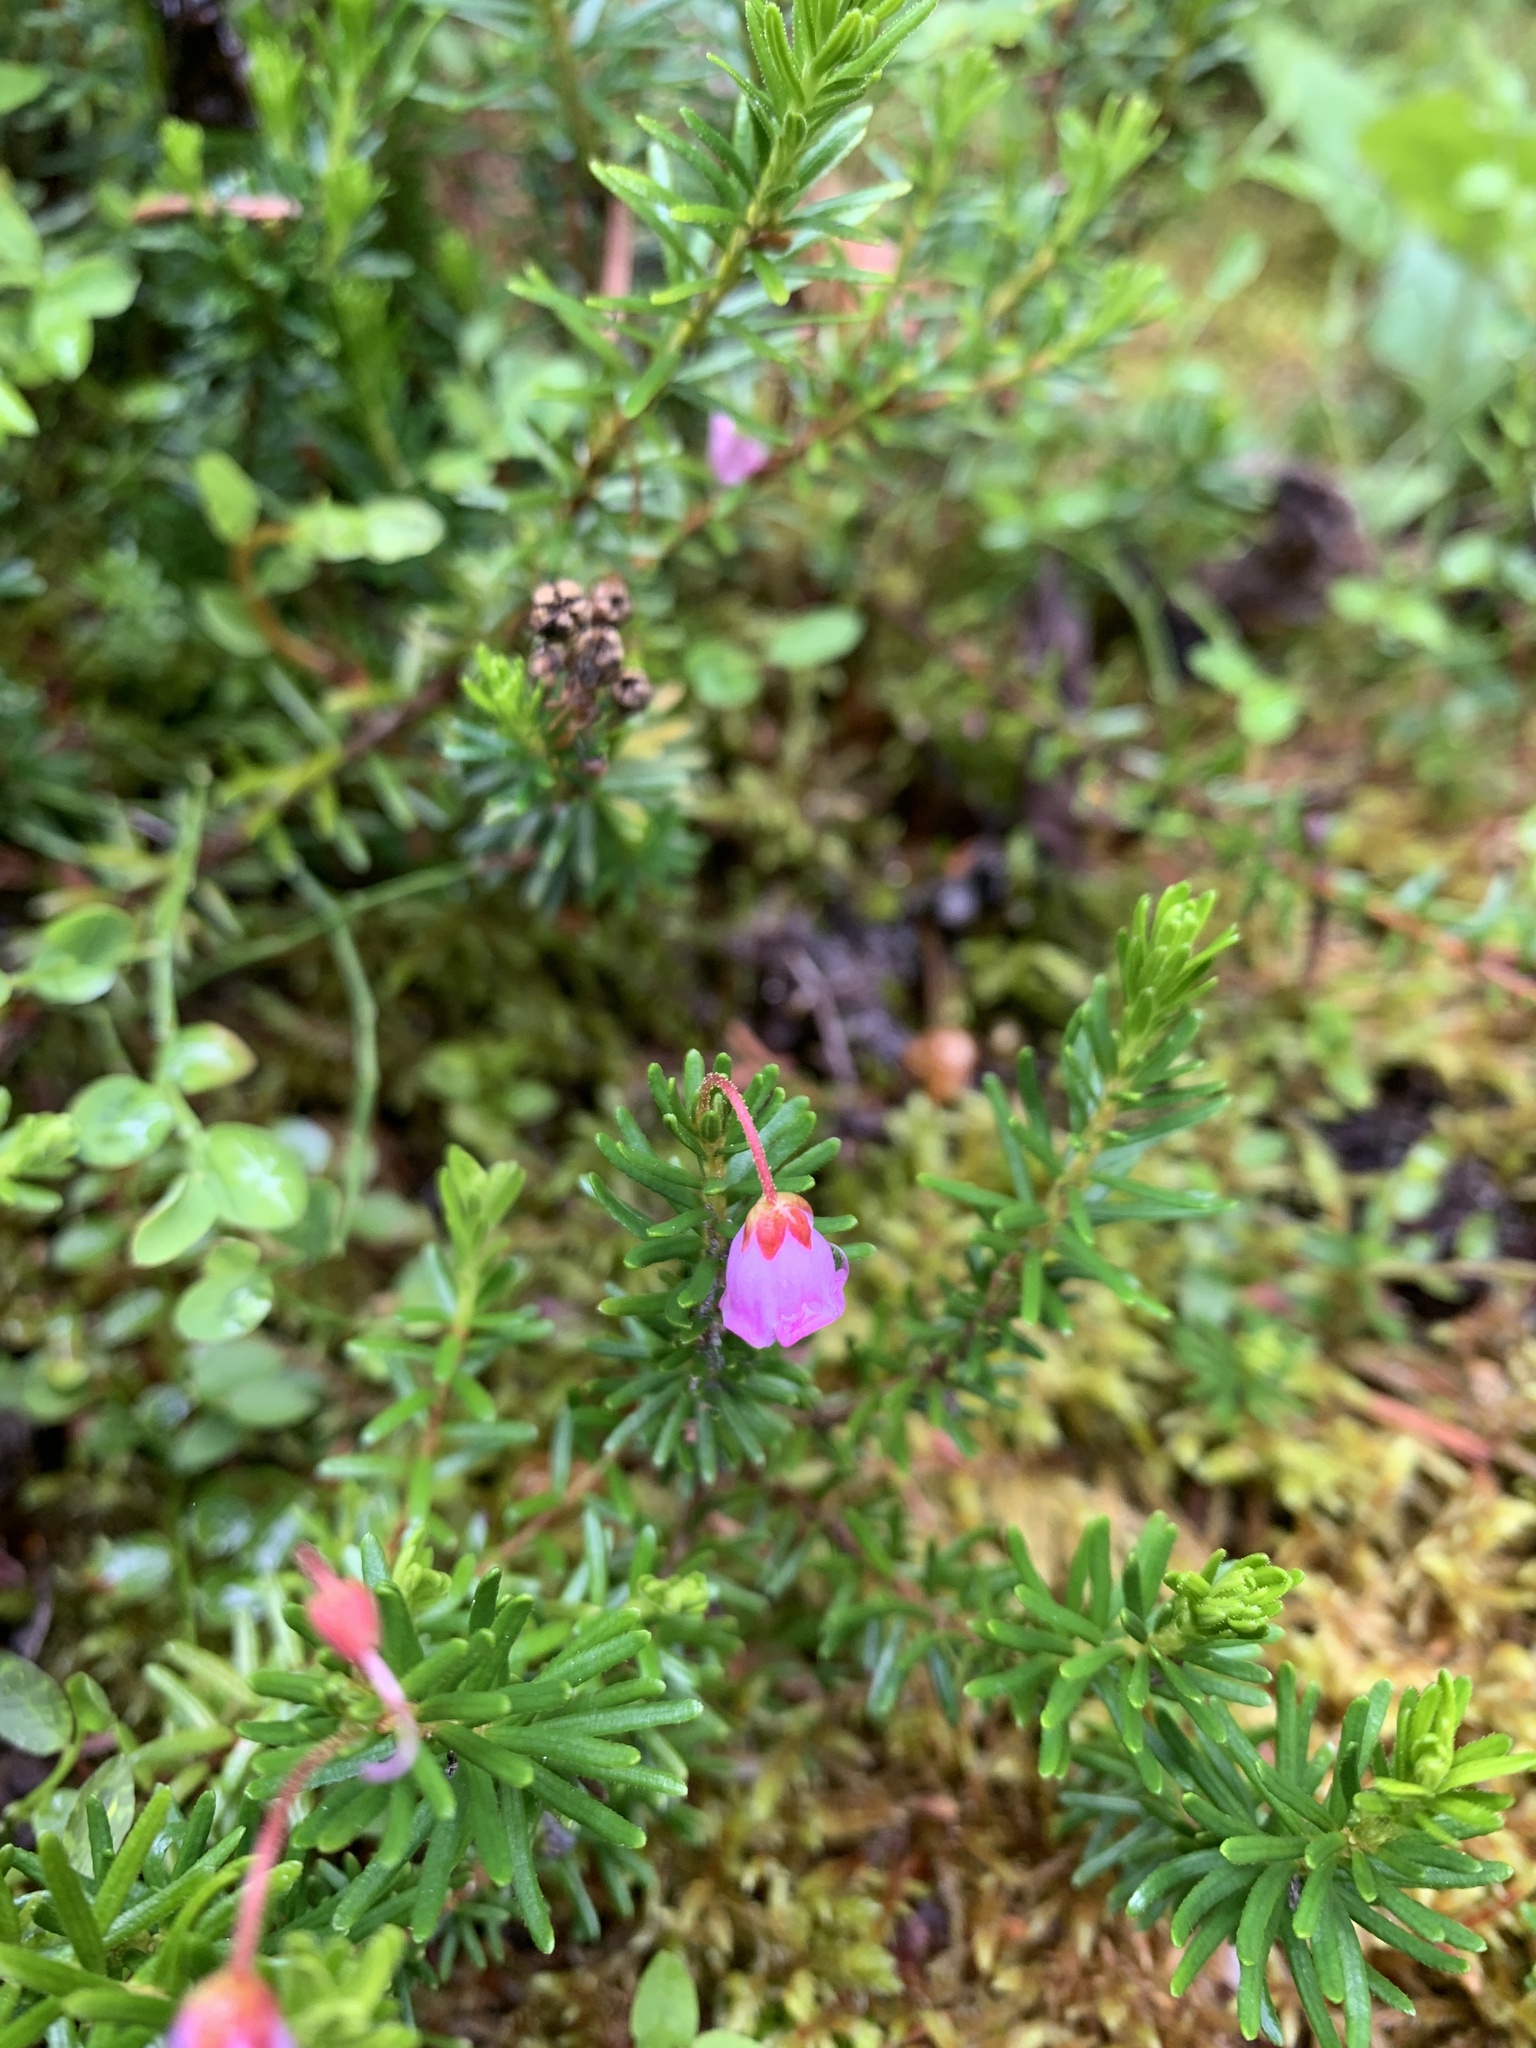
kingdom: Plantae
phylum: Tracheophyta
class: Magnoliopsida
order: Ericales
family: Ericaceae
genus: Phyllodoce
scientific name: Phyllodoce empetriformis
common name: Pink mountain heather
